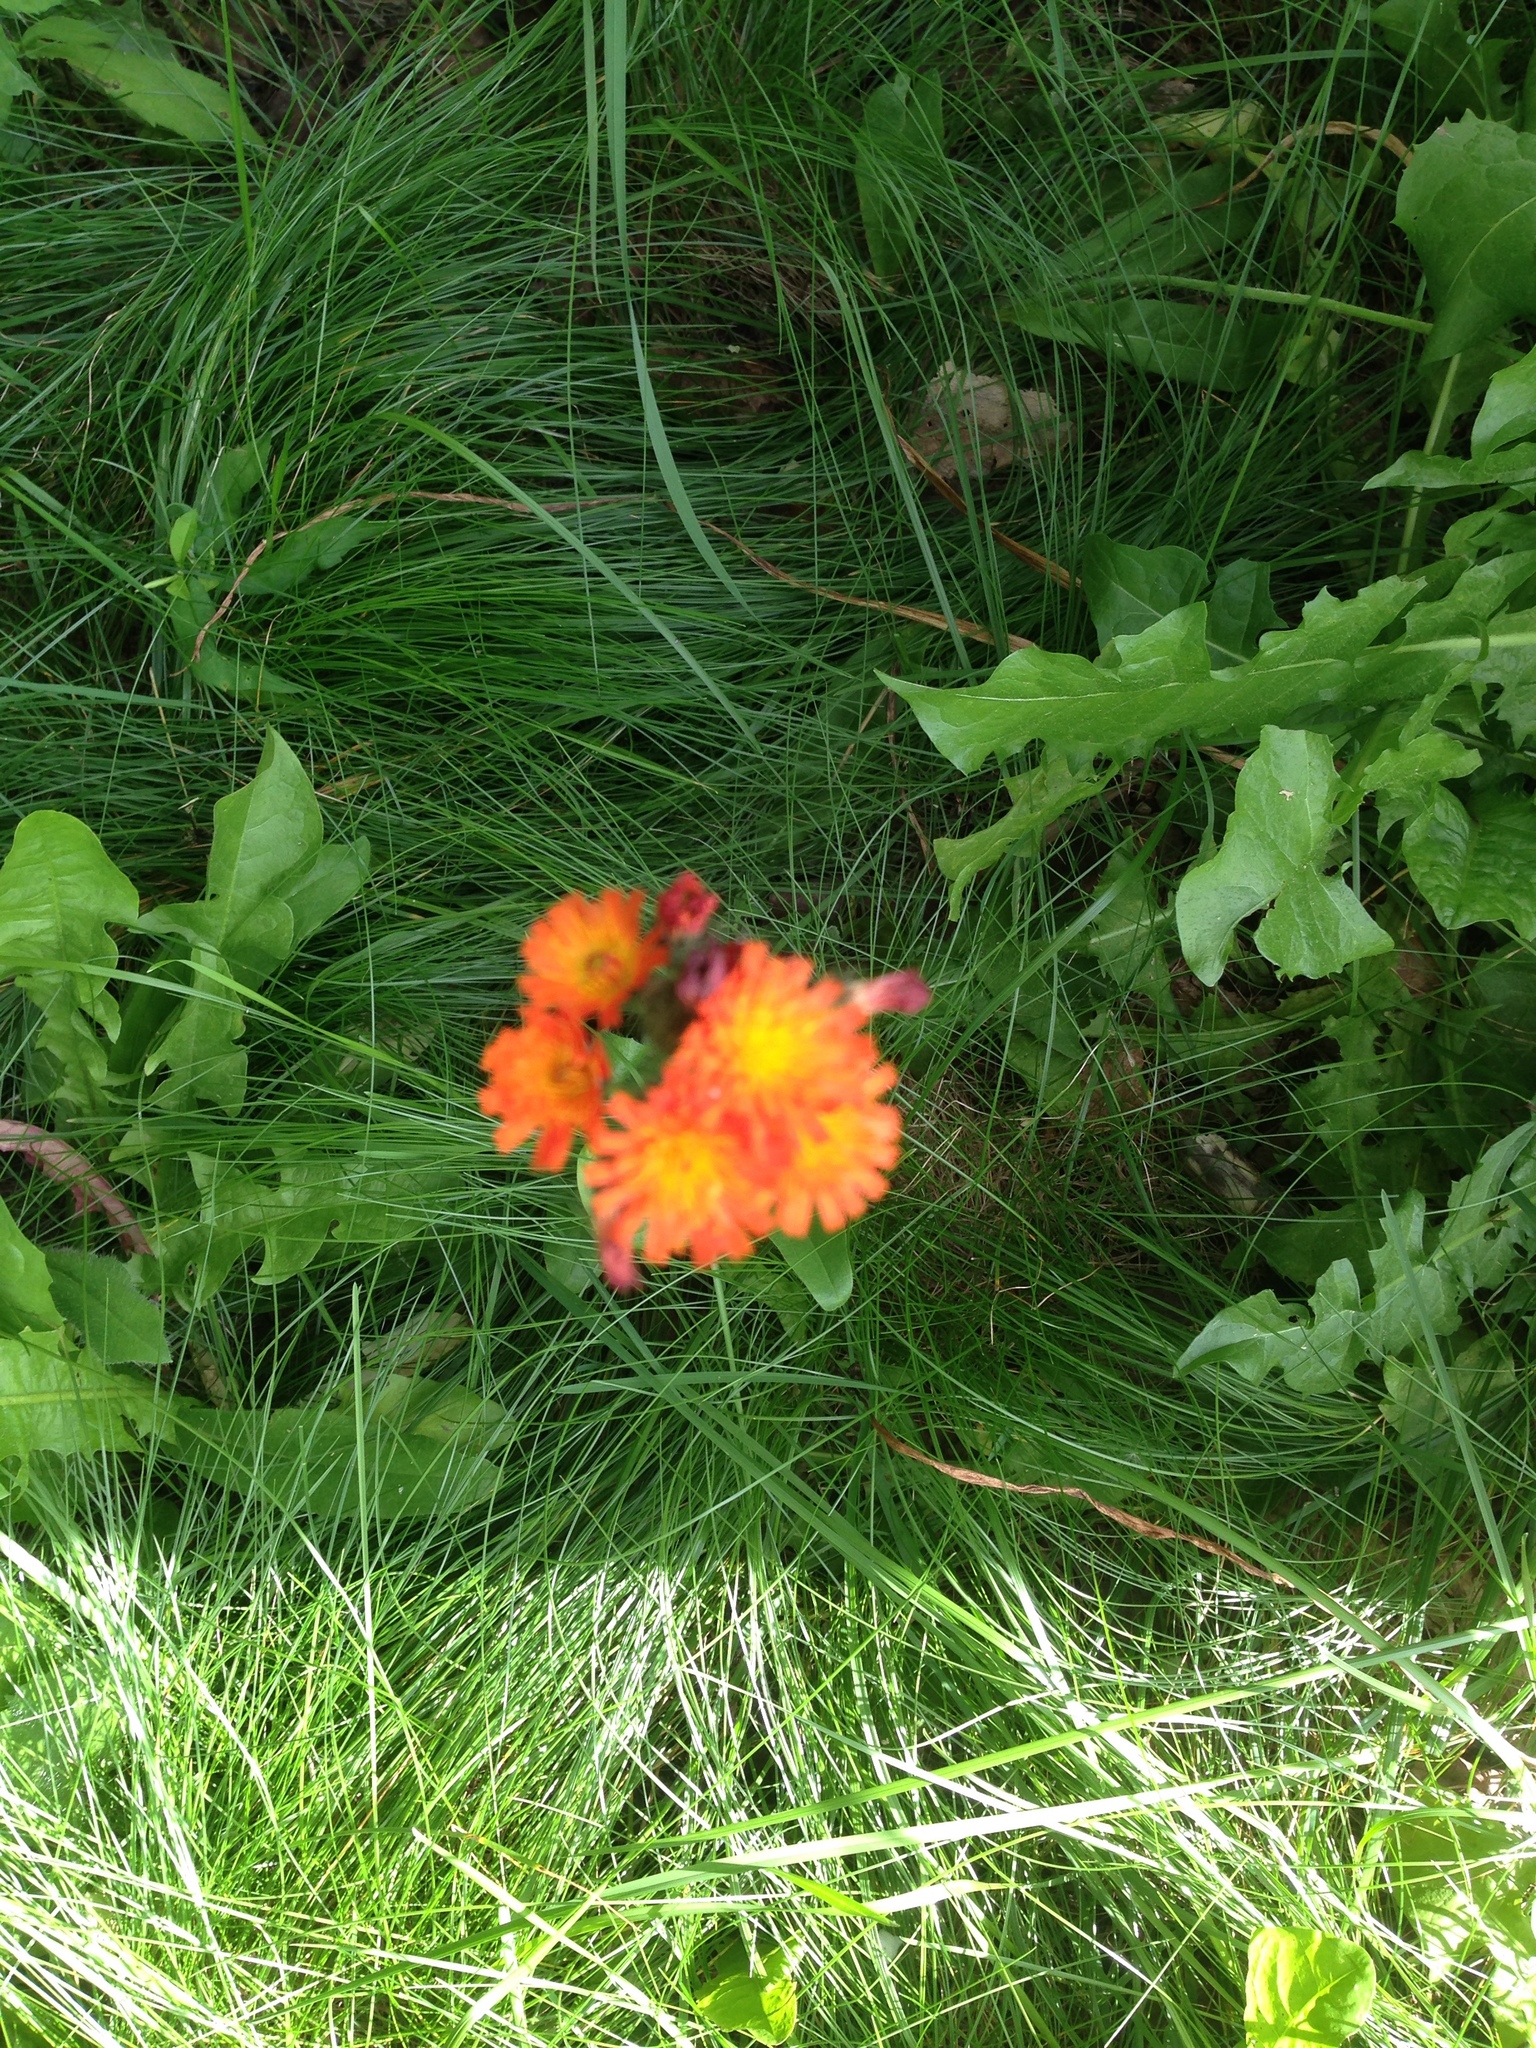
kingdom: Plantae
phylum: Tracheophyta
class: Magnoliopsida
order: Asterales
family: Asteraceae
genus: Pilosella
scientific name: Pilosella aurantiaca
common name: Fox-and-cubs
